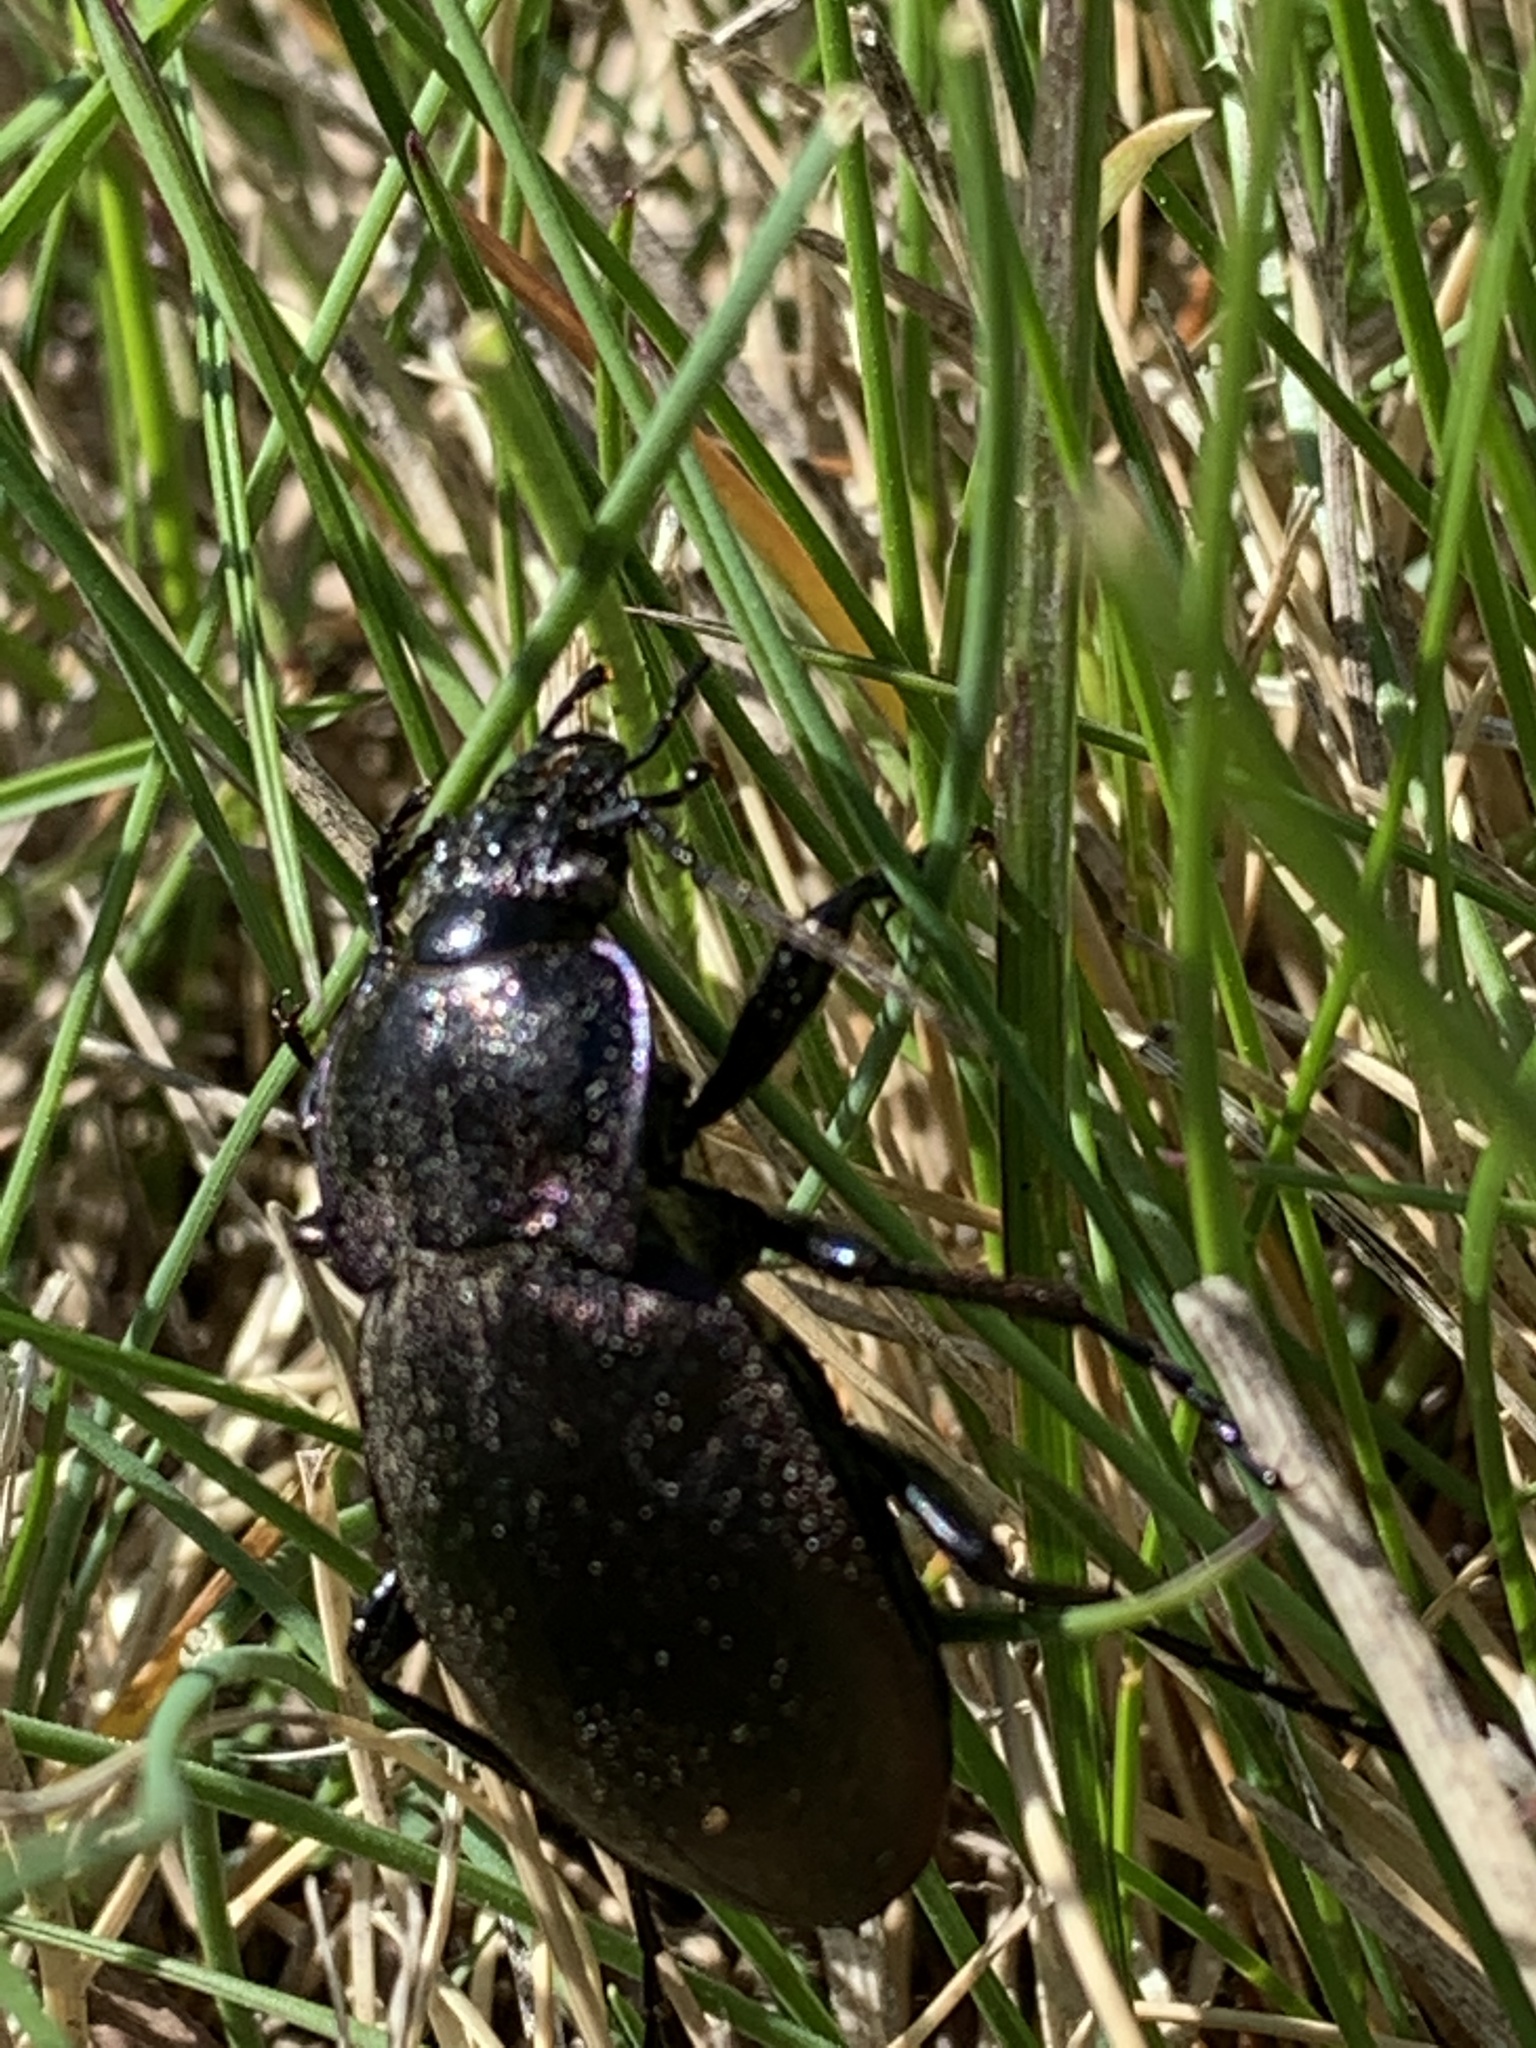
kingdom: Animalia
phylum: Arthropoda
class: Insecta
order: Coleoptera
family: Carabidae
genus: Carabus
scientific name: Carabus nemoralis
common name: European ground beetle
